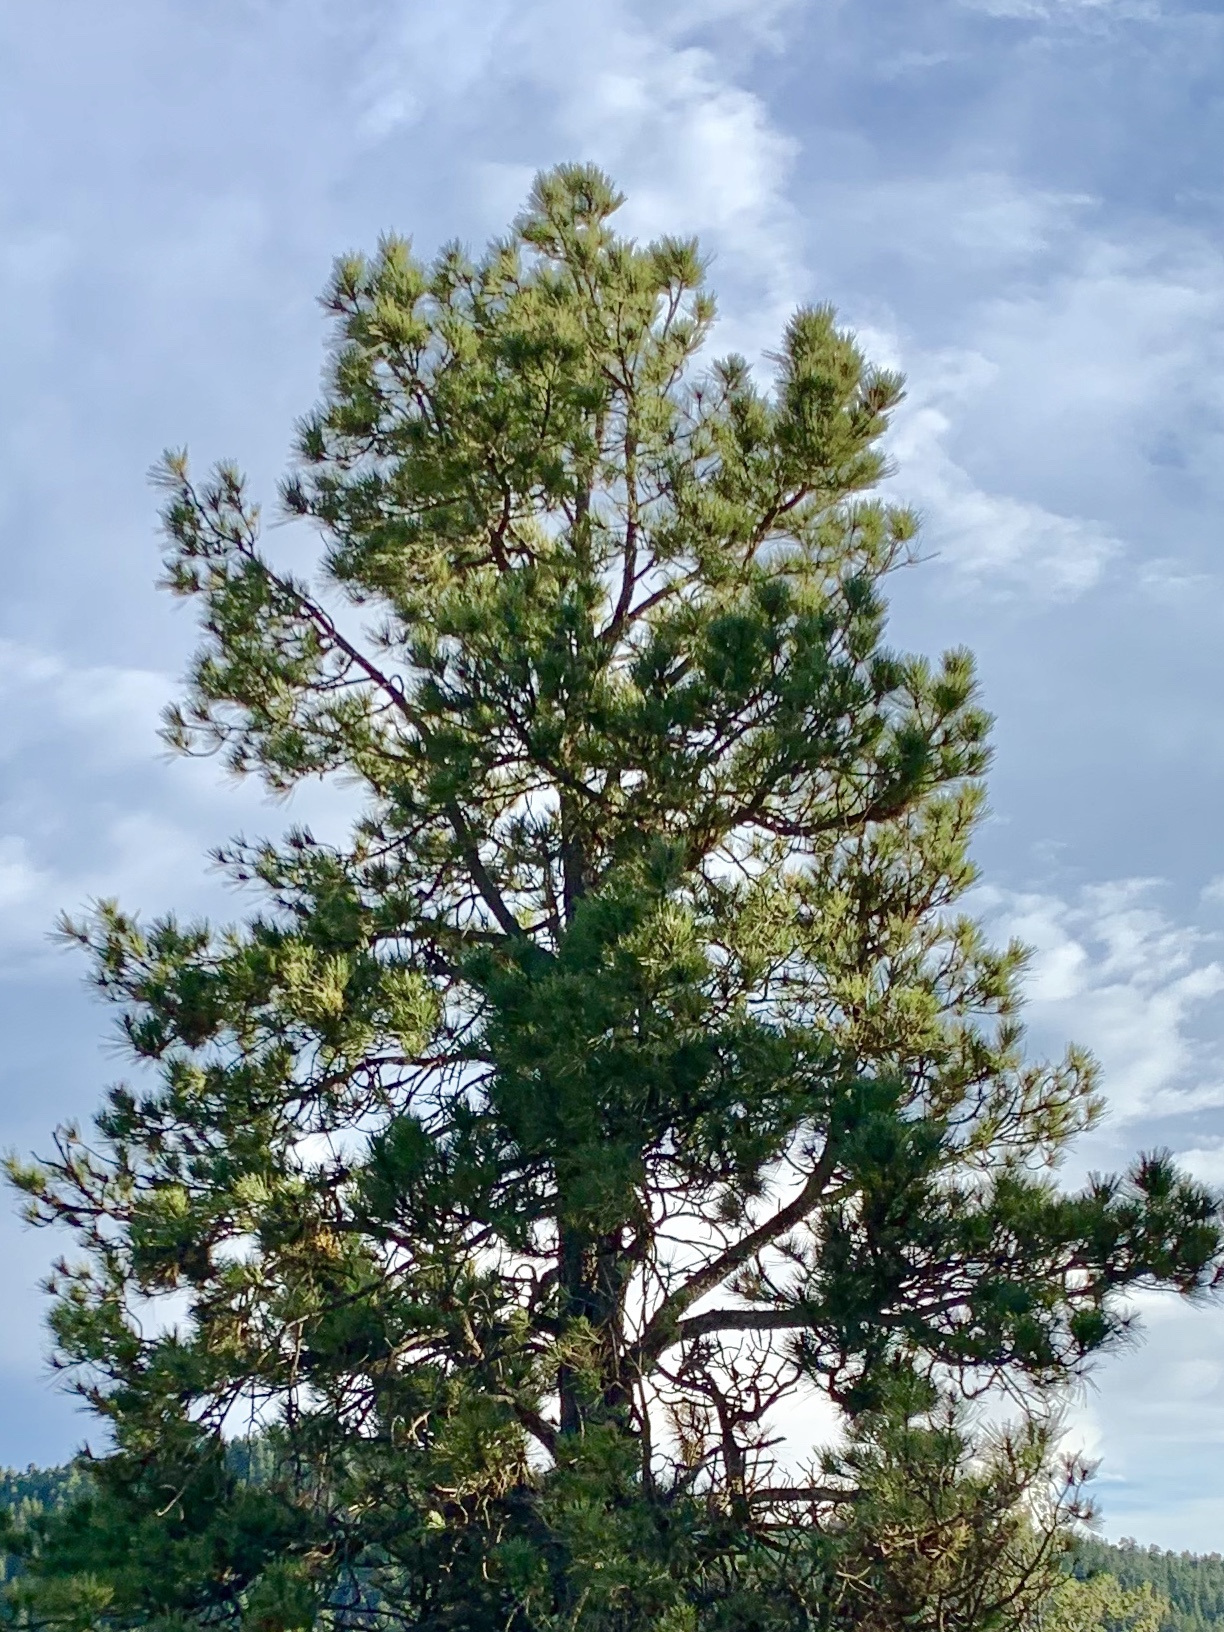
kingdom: Plantae
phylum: Tracheophyta
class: Pinopsida
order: Pinales
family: Pinaceae
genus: Pinus
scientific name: Pinus ponderosa
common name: Western yellow-pine
